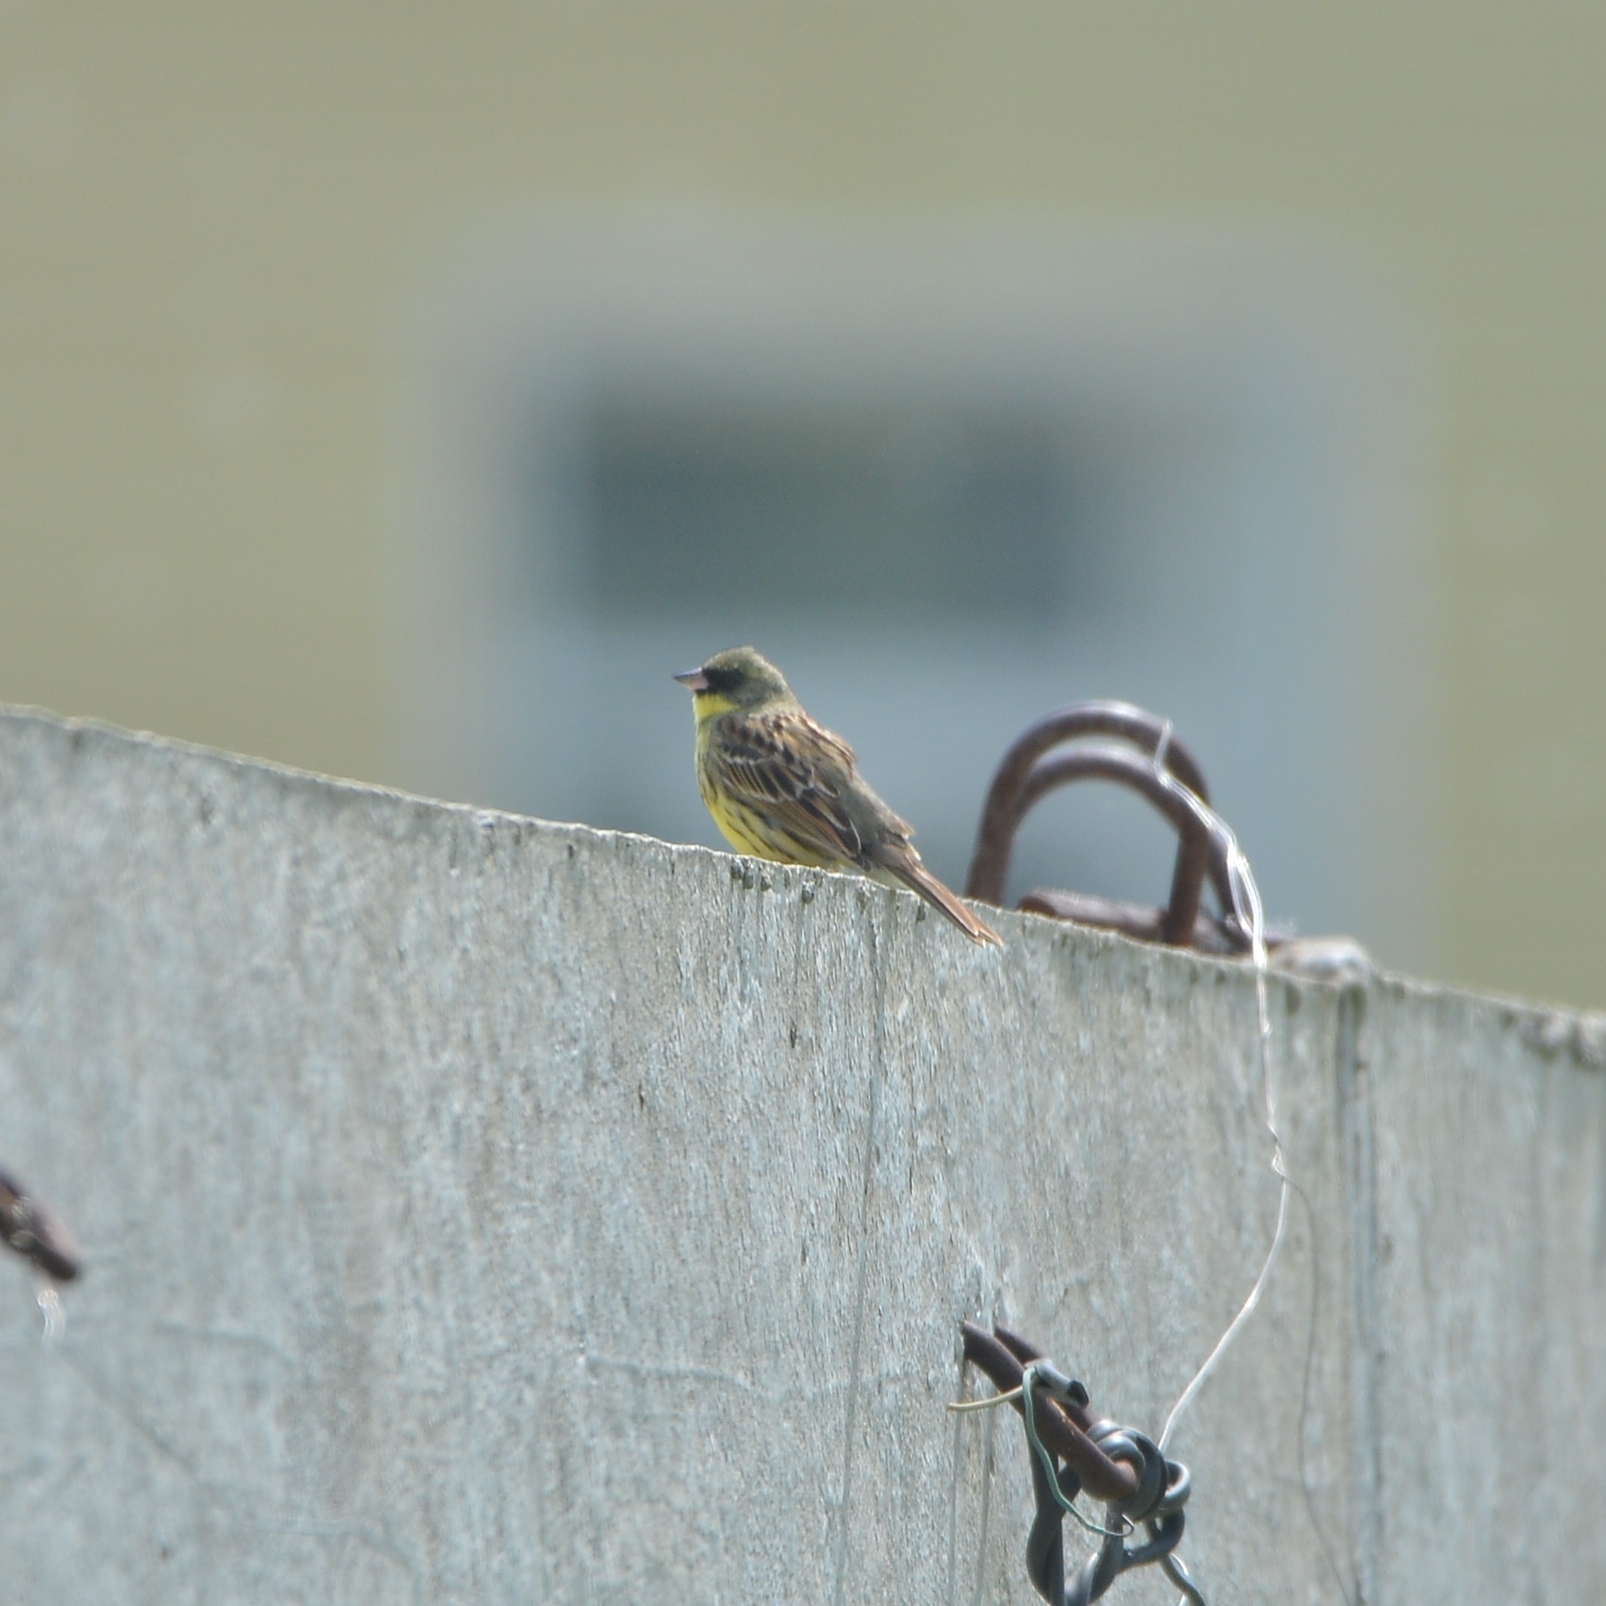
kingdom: Animalia
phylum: Chordata
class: Aves
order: Passeriformes
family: Emberizidae
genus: Emberiza
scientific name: Emberiza personata
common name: Masked bunting
